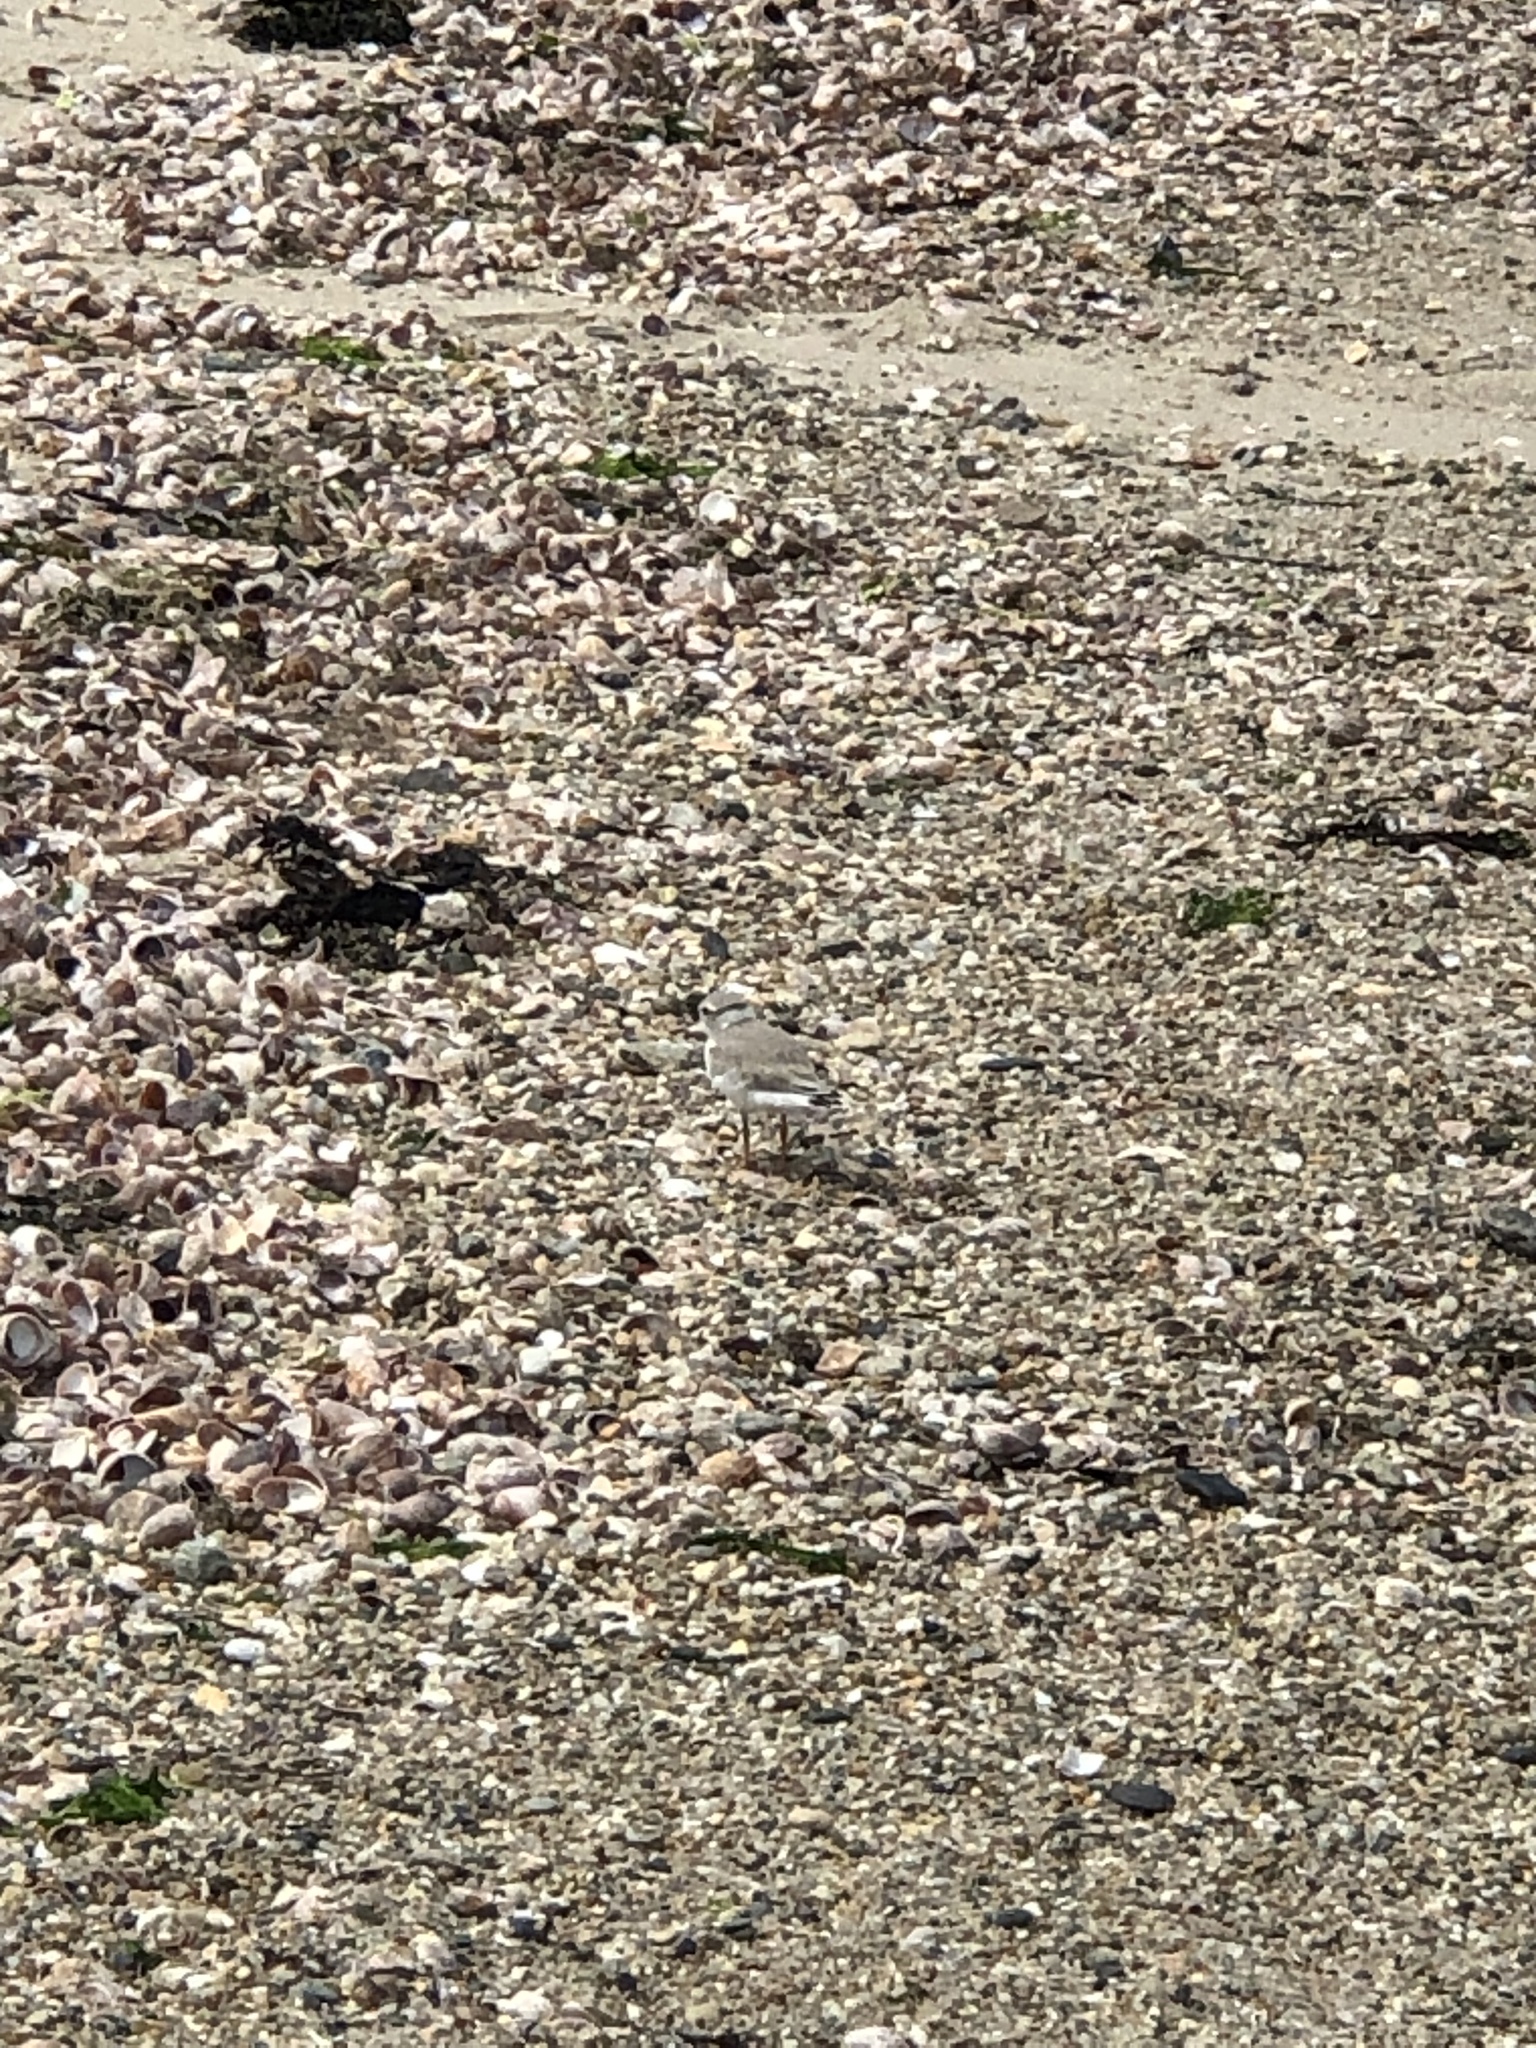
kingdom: Animalia
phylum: Chordata
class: Aves
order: Charadriiformes
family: Charadriidae
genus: Charadrius
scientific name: Charadrius melodus
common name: Piping plover
